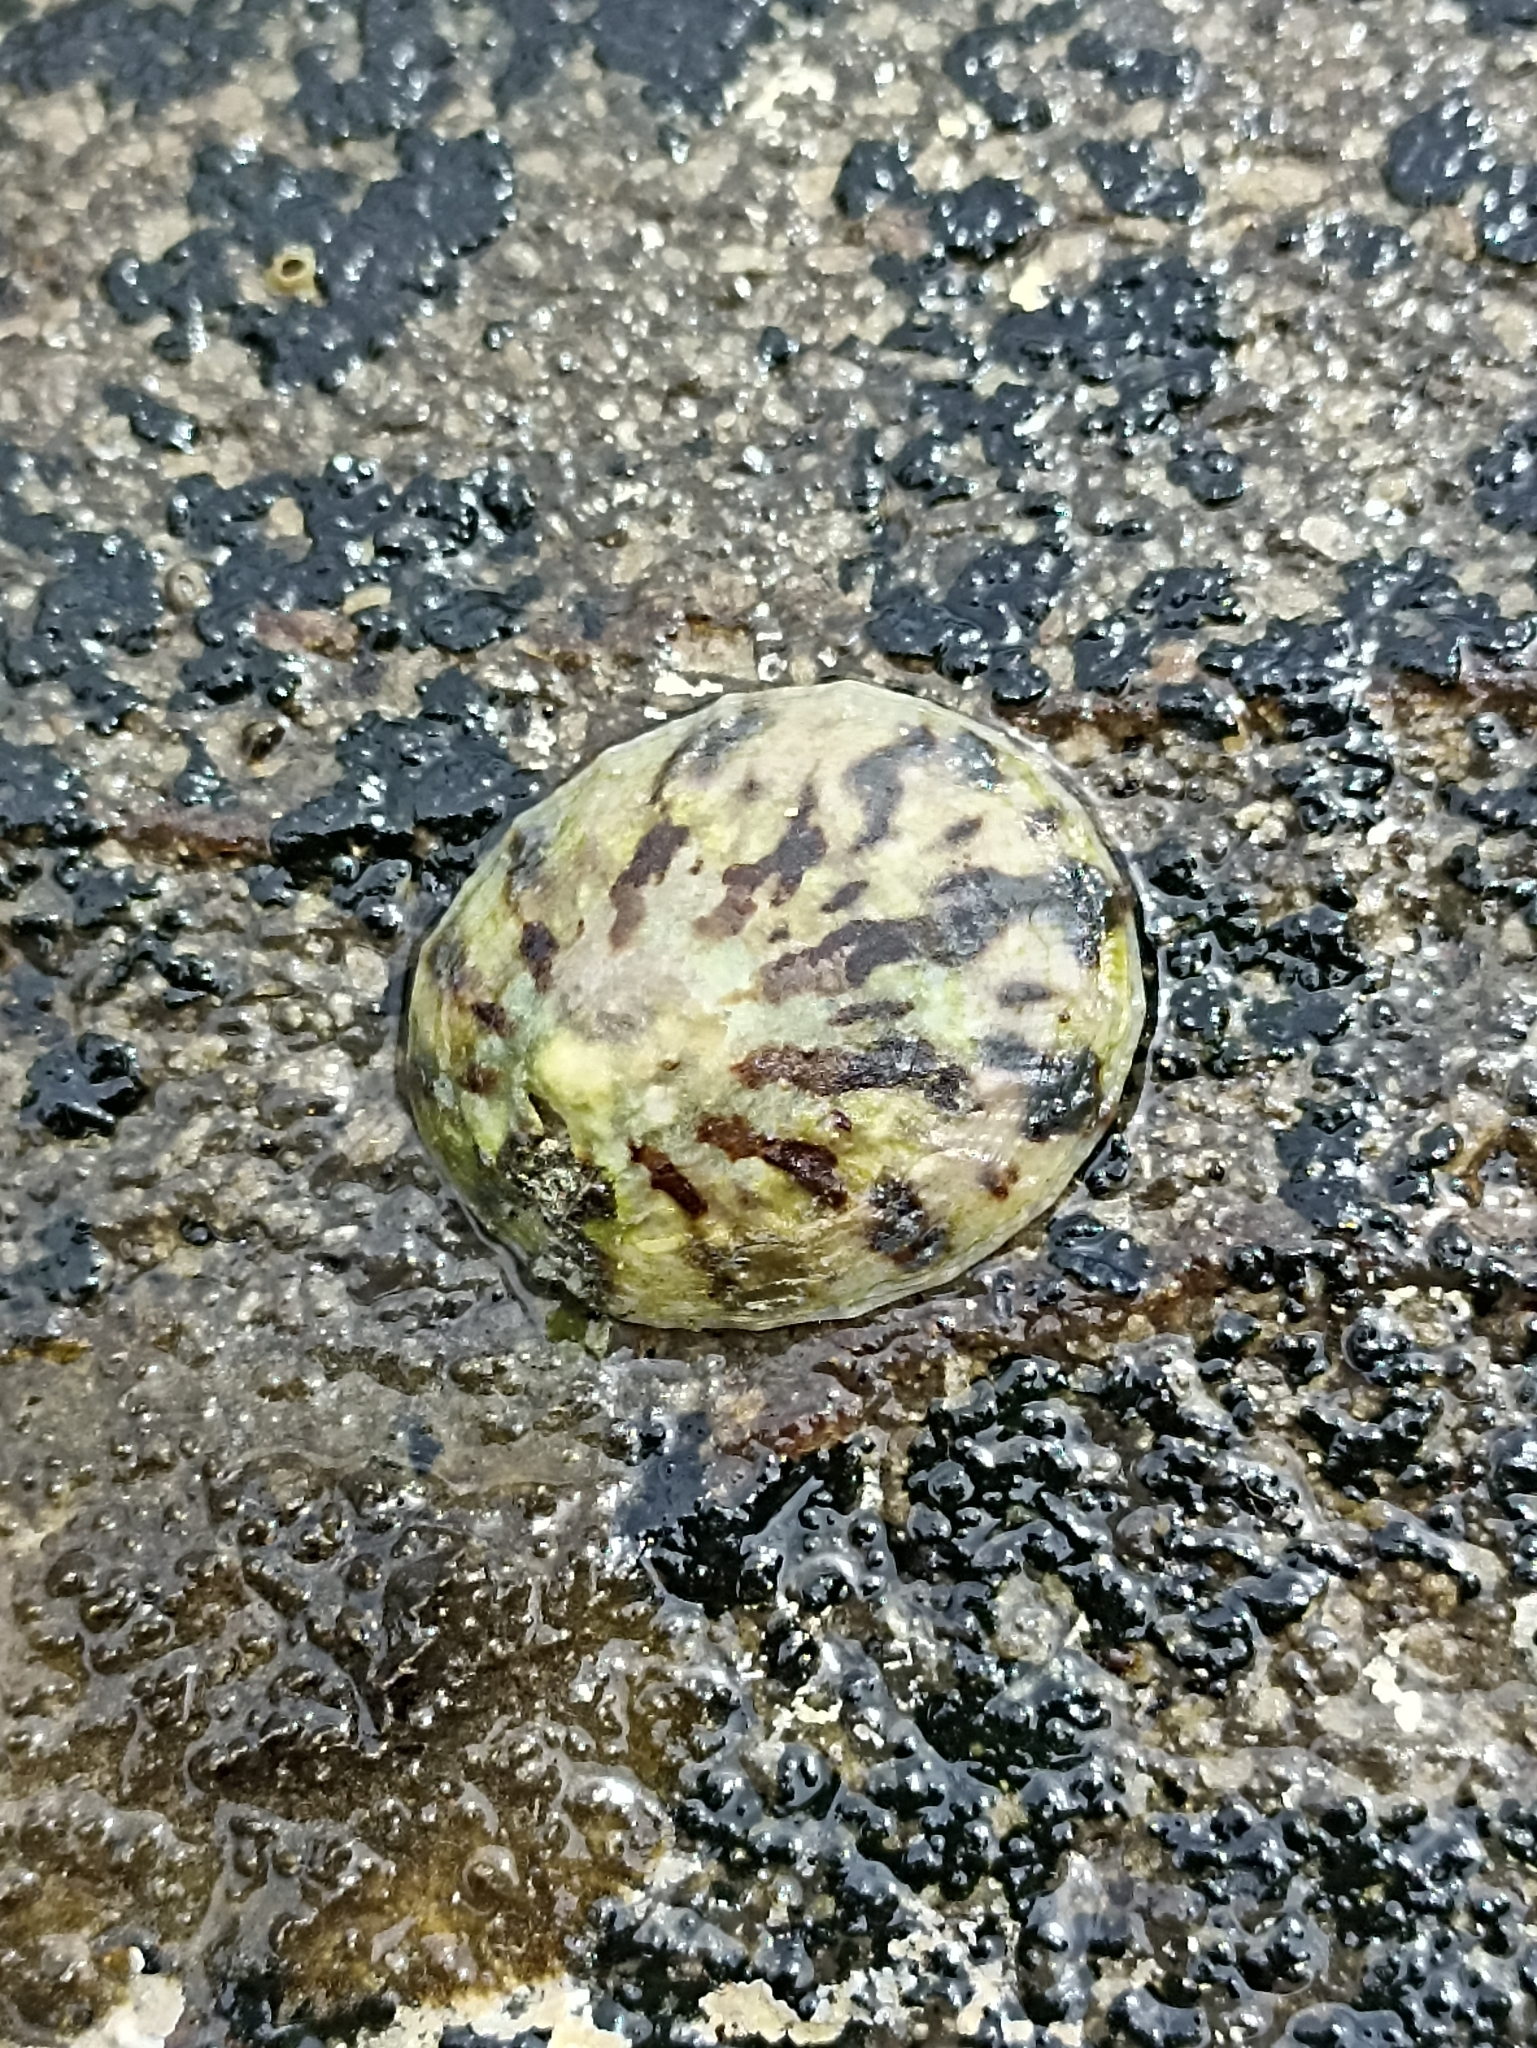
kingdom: Animalia
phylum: Mollusca
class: Gastropoda
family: Nacellidae
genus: Cellana
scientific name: Cellana radians
